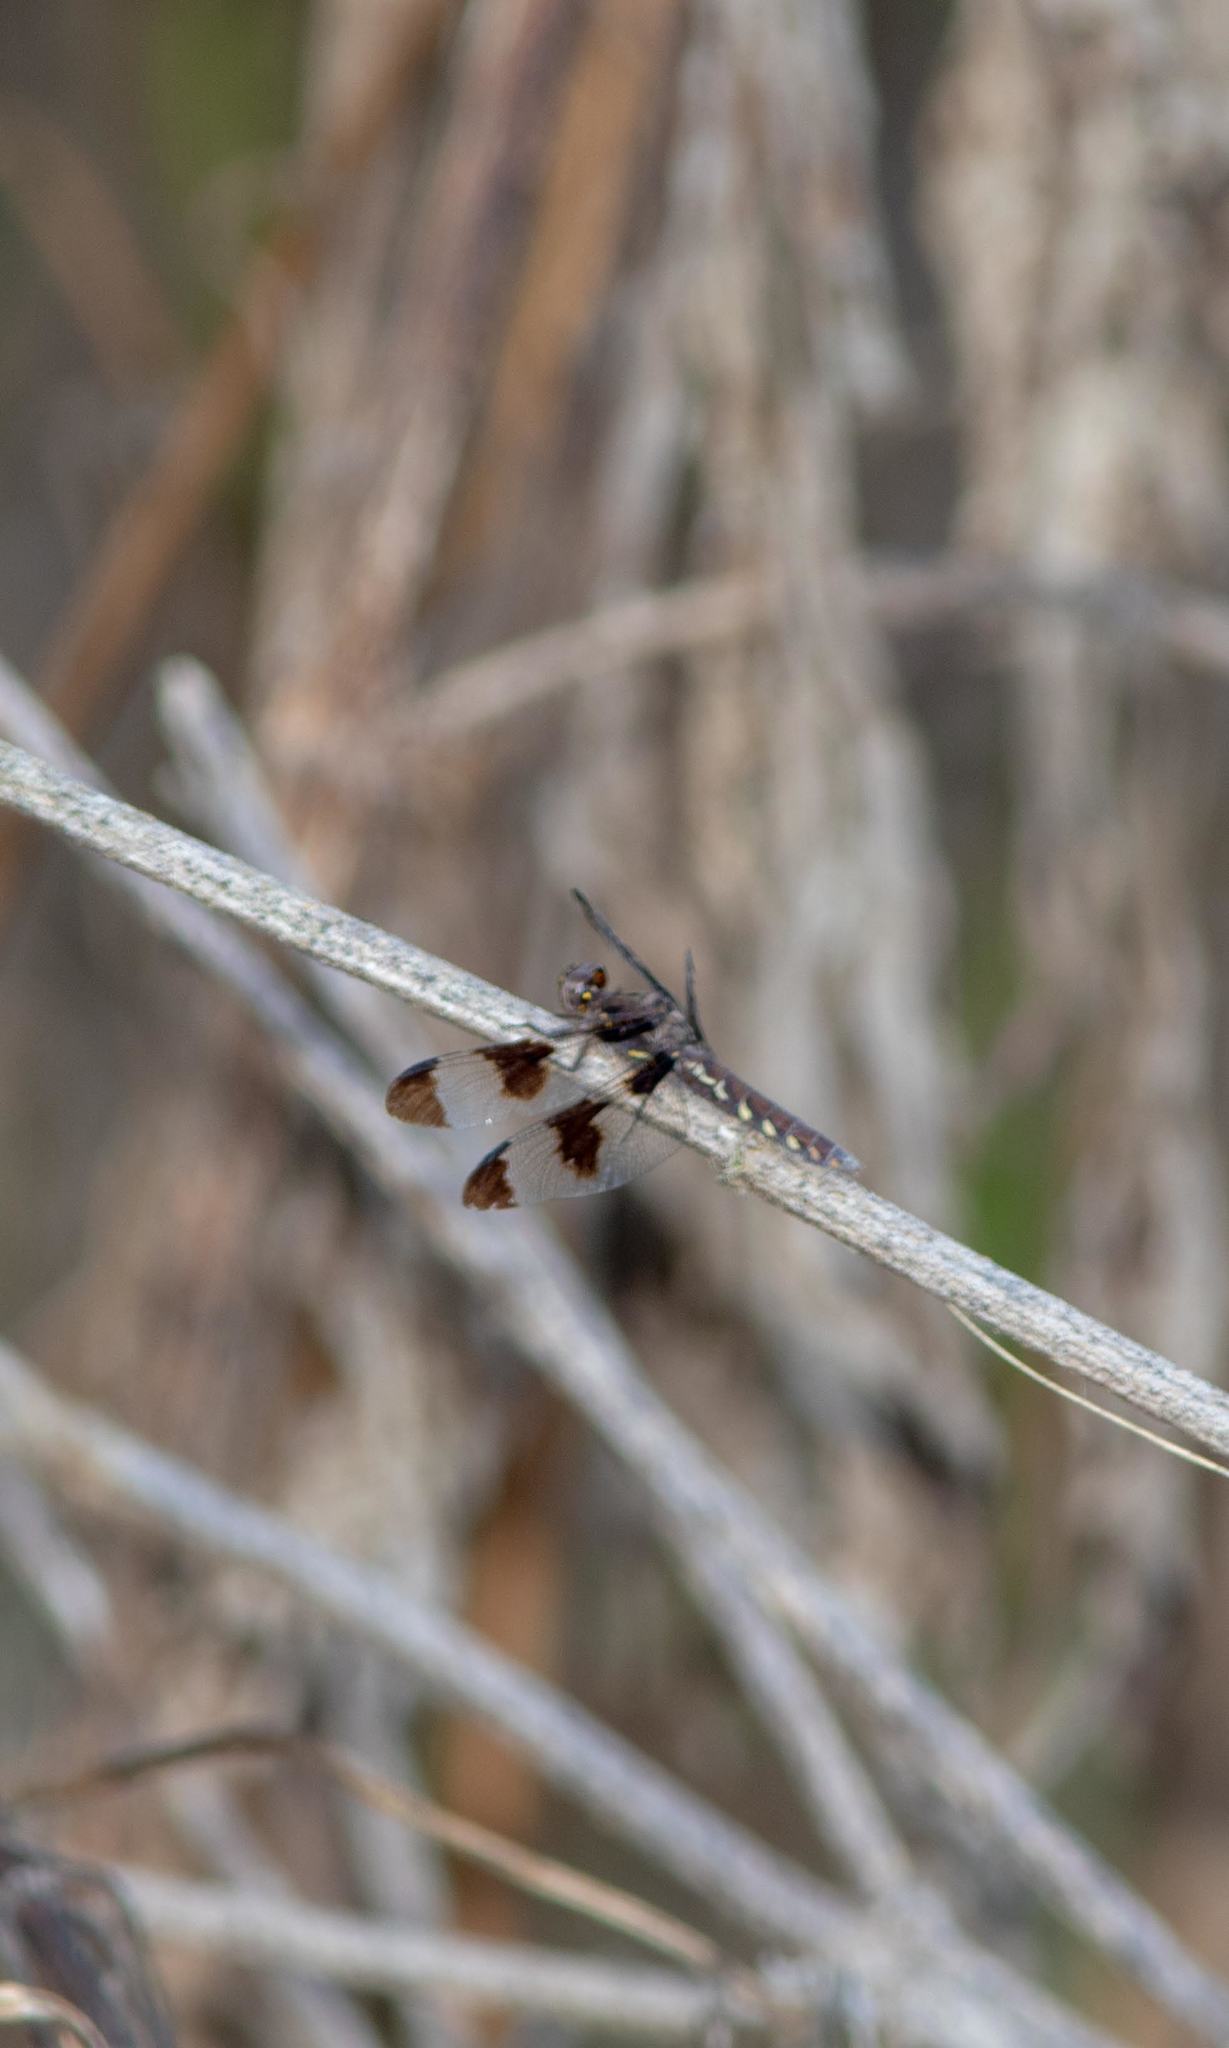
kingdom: Animalia
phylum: Arthropoda
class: Insecta
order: Odonata
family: Libellulidae
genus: Plathemis
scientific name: Plathemis lydia
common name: Common whitetail
